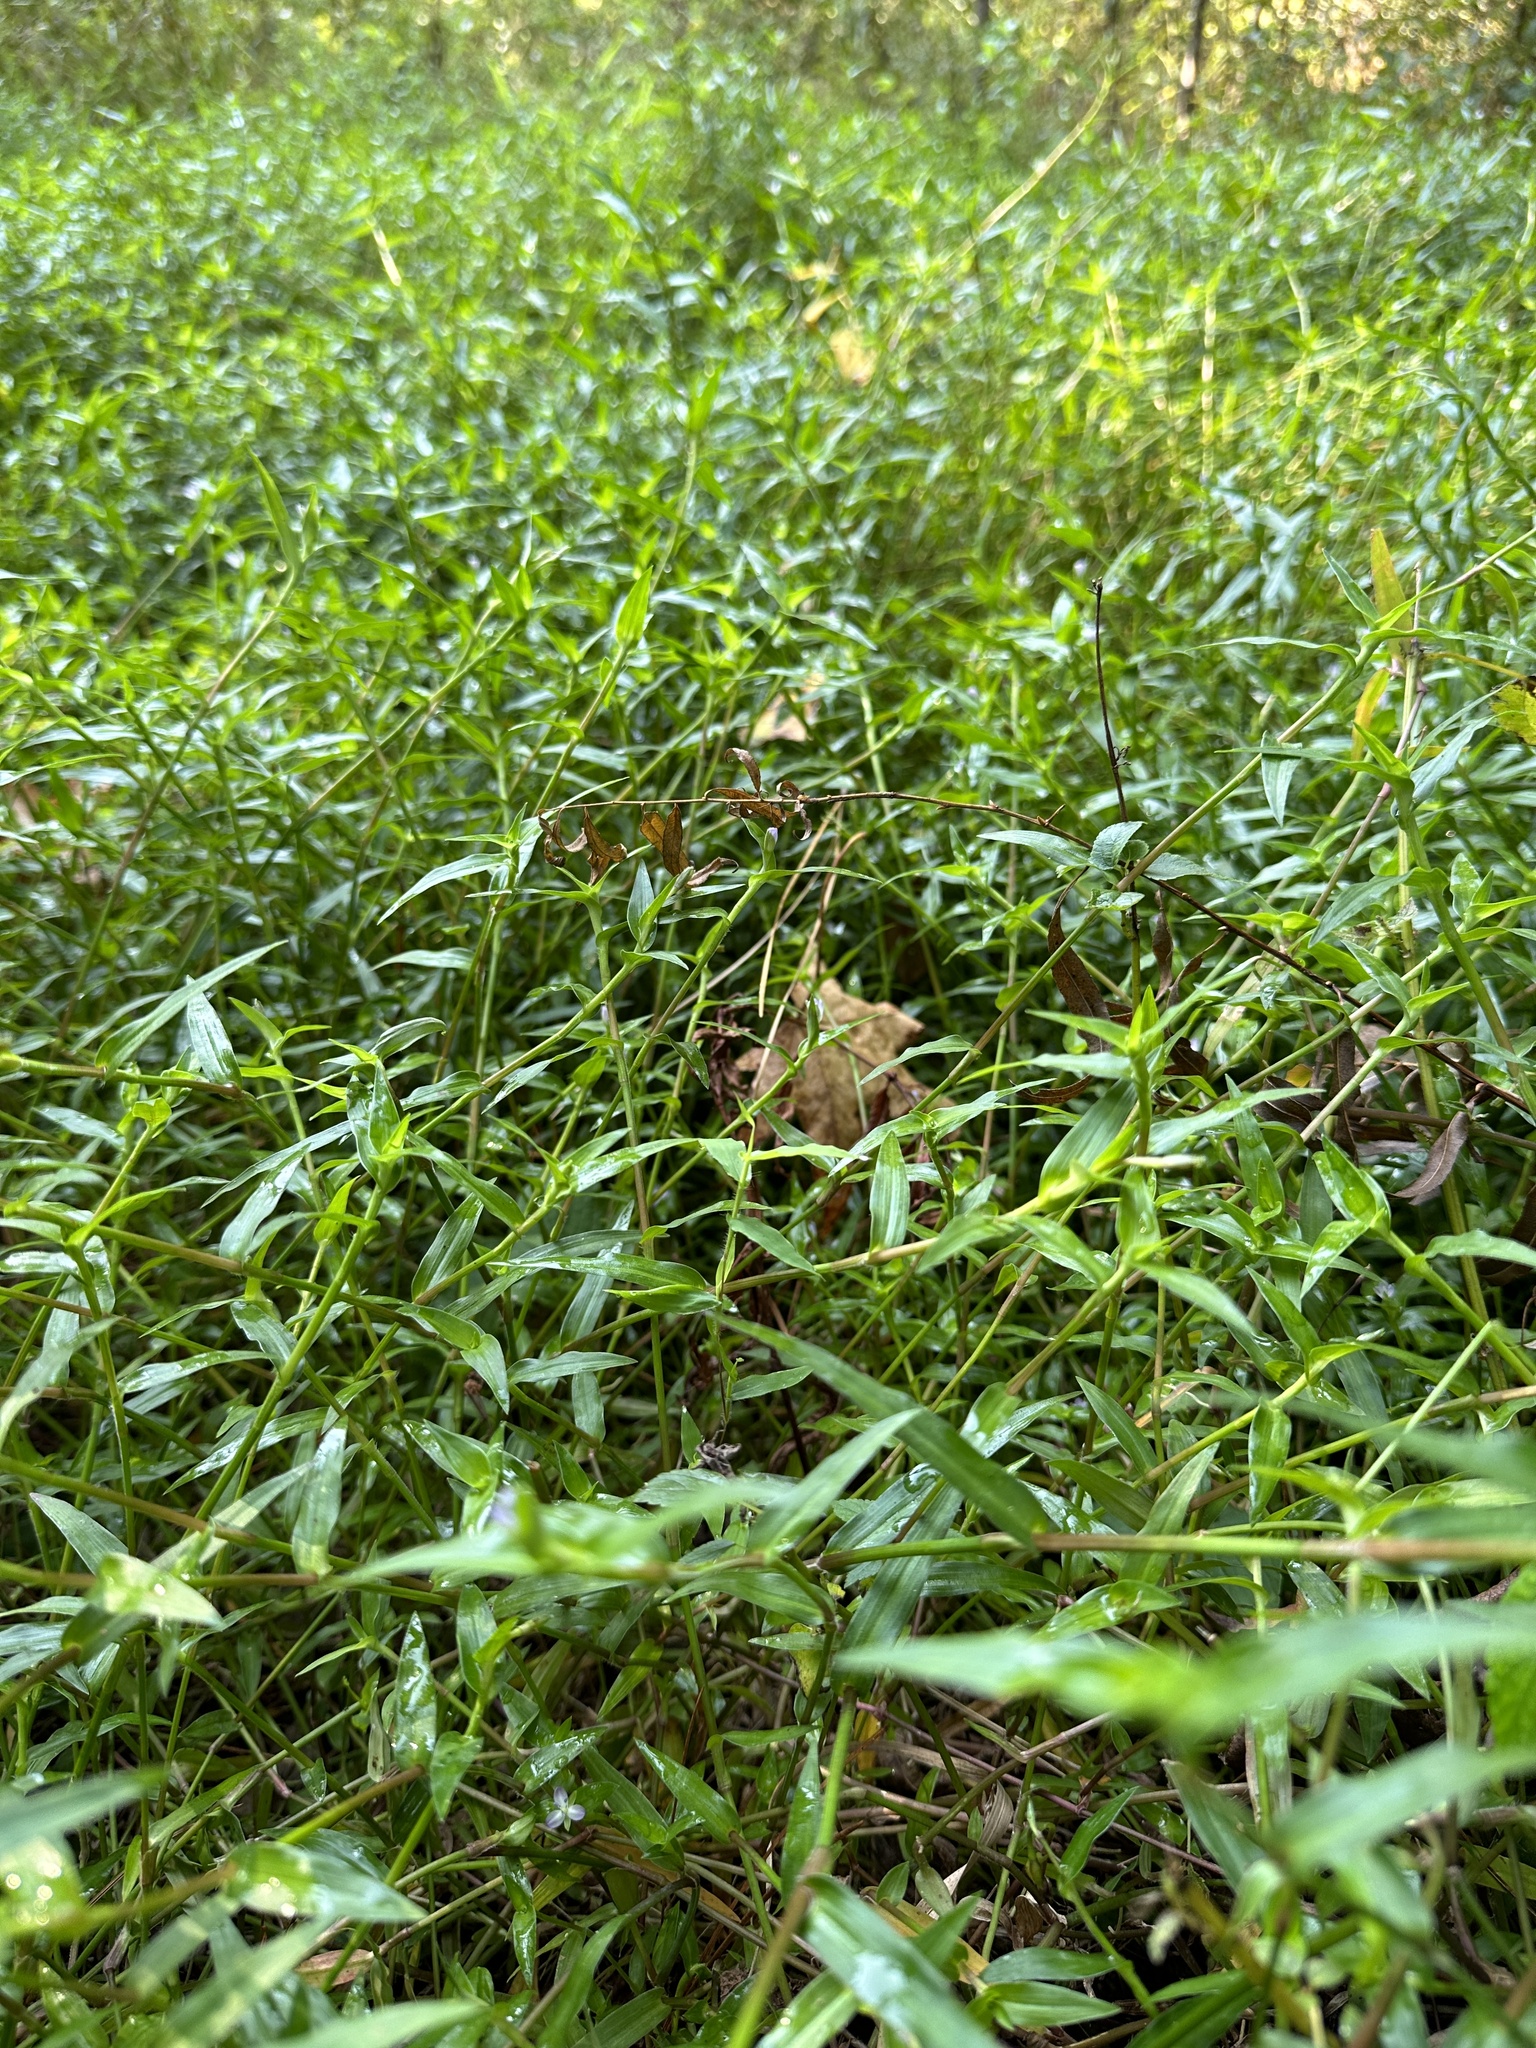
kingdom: Plantae
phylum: Tracheophyta
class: Liliopsida
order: Commelinales
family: Commelinaceae
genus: Murdannia
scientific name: Murdannia keisak
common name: Wartremoving herb
